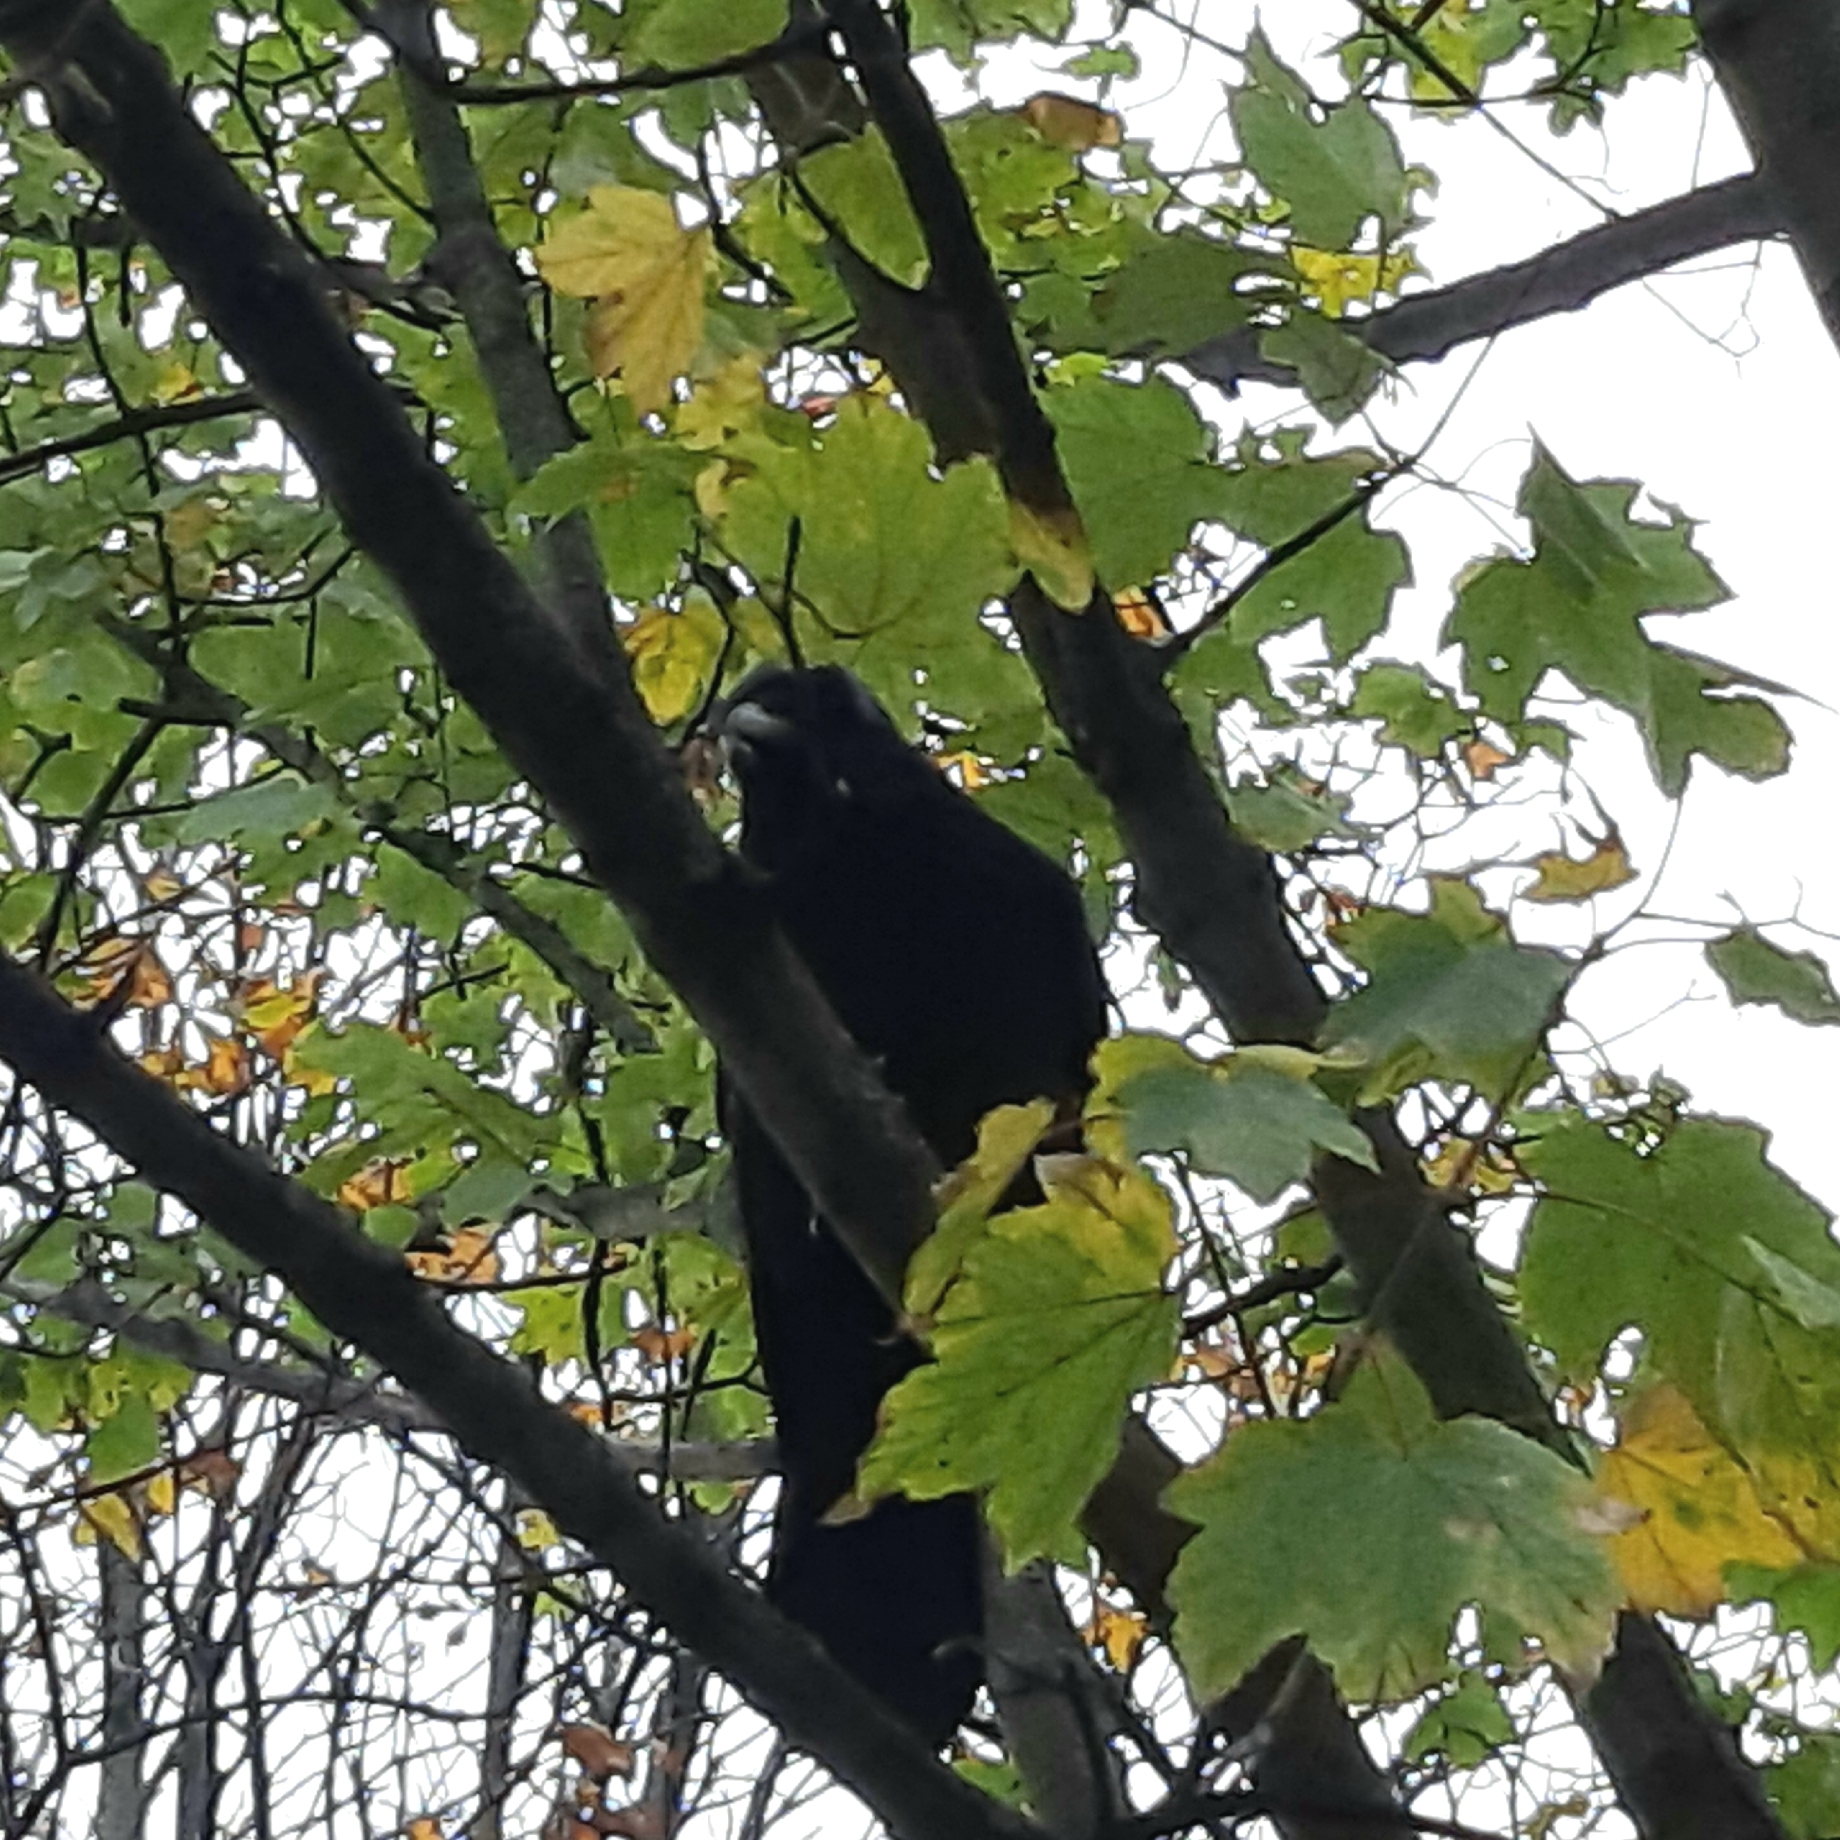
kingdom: Animalia
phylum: Chordata
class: Aves
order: Passeriformes
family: Corvidae
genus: Corvus
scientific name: Corvus corone
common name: Carrion crow
